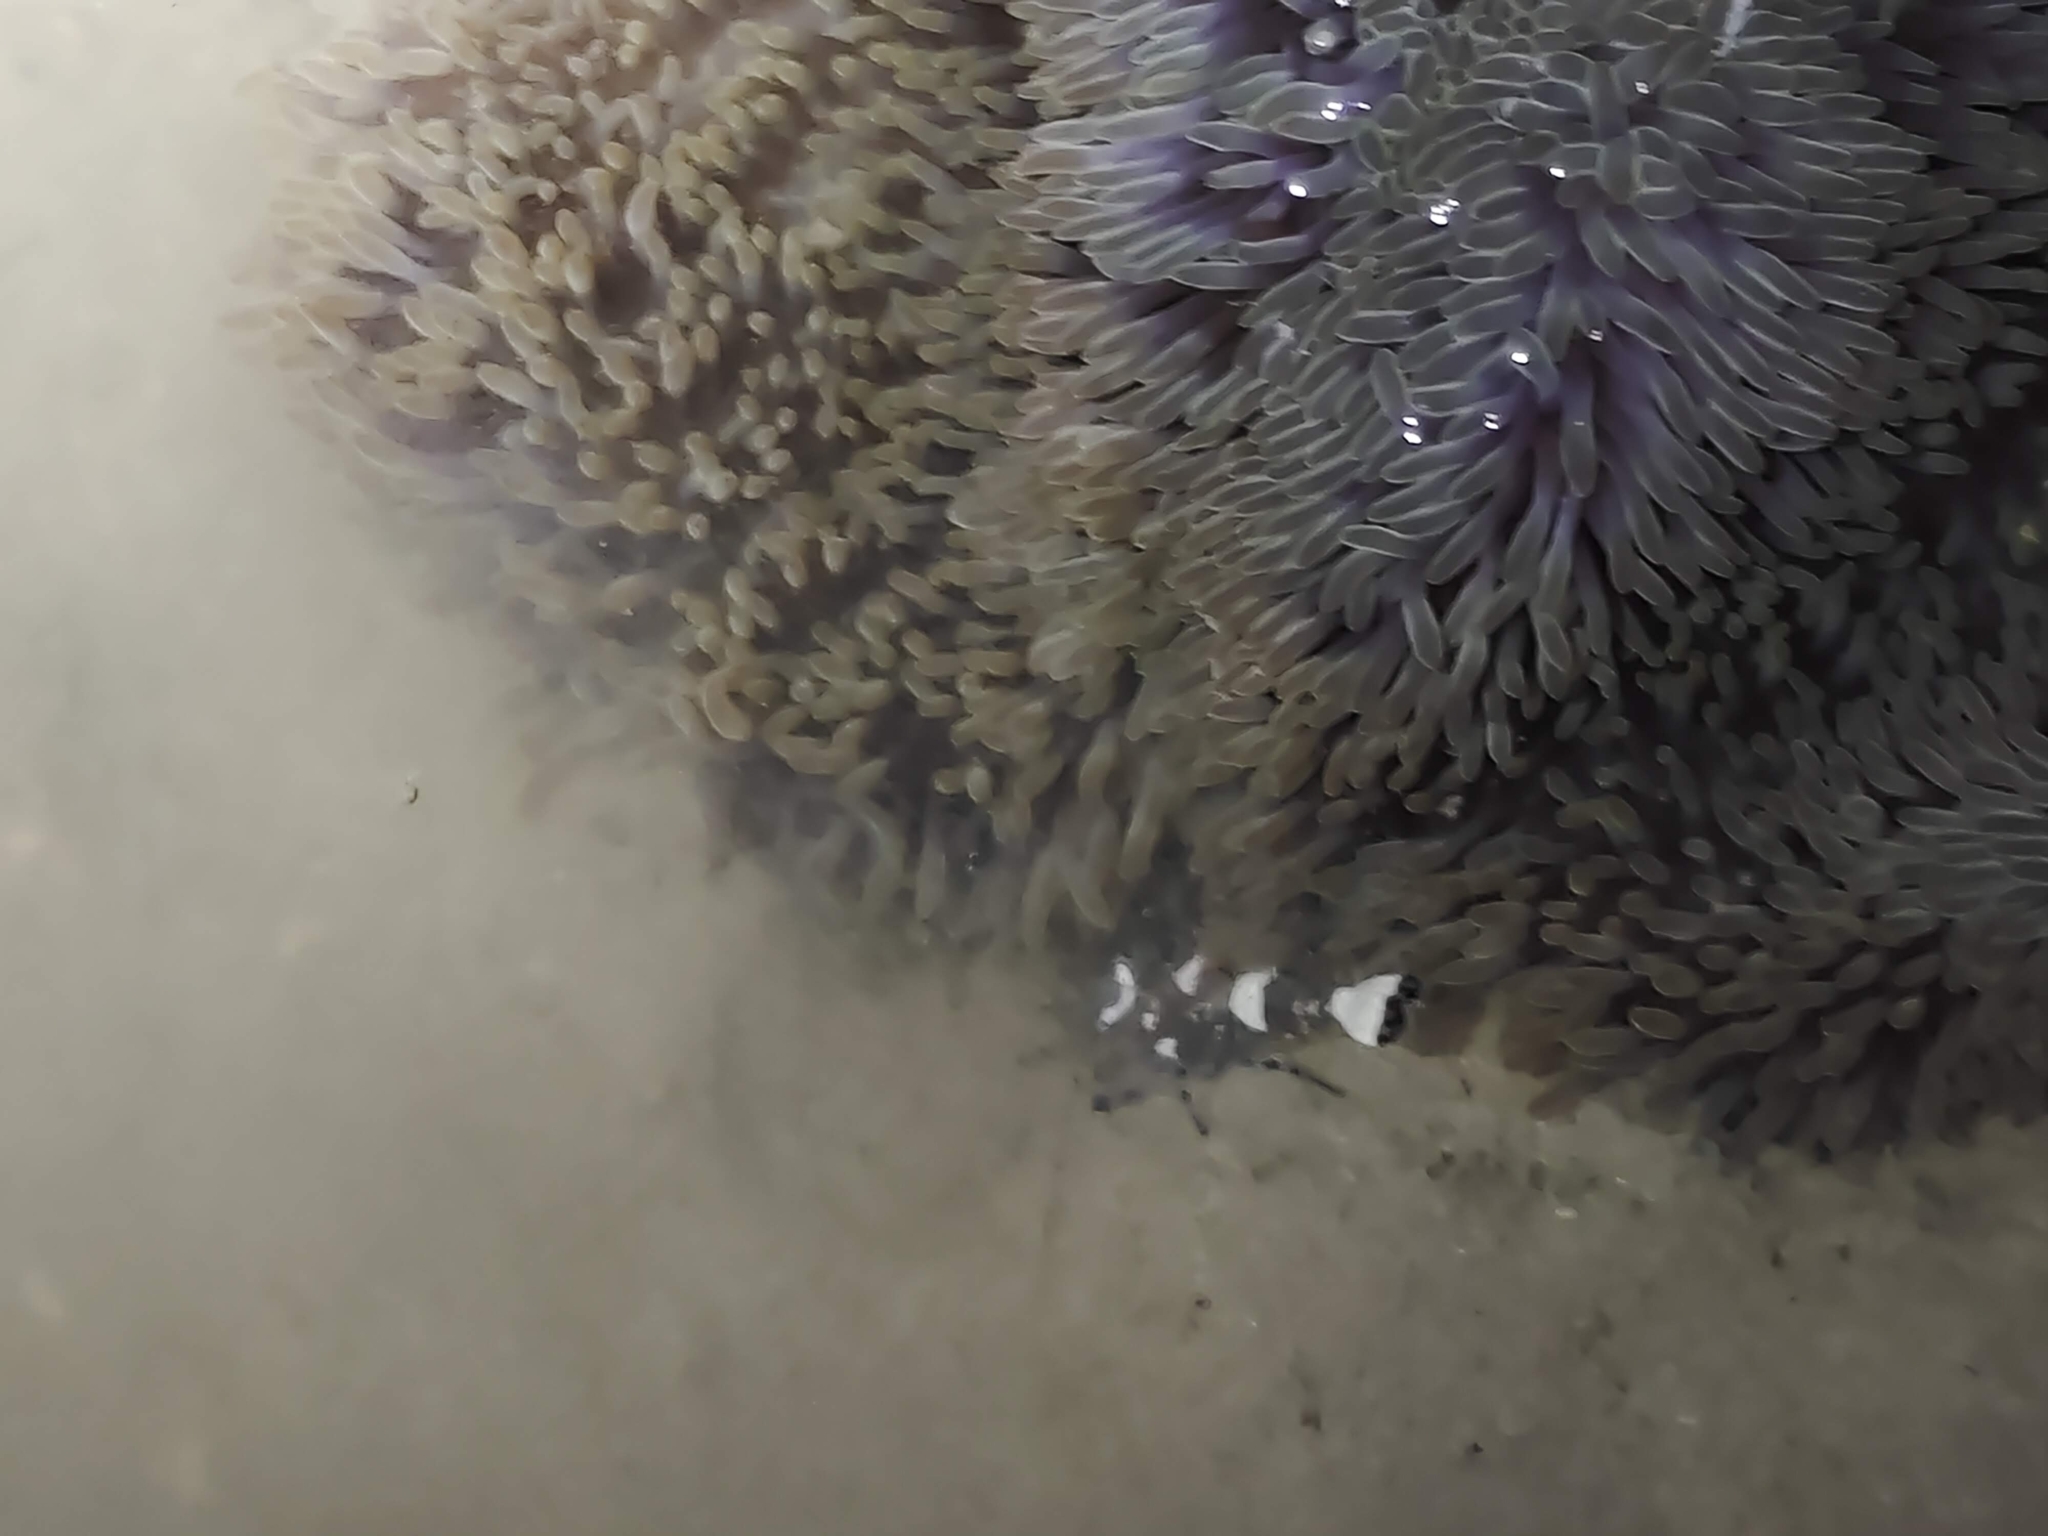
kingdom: Animalia
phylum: Arthropoda
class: Malacostraca
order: Decapoda
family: Palaemonidae
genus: Ancylocaris
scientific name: Ancylocaris brevicarpalis
